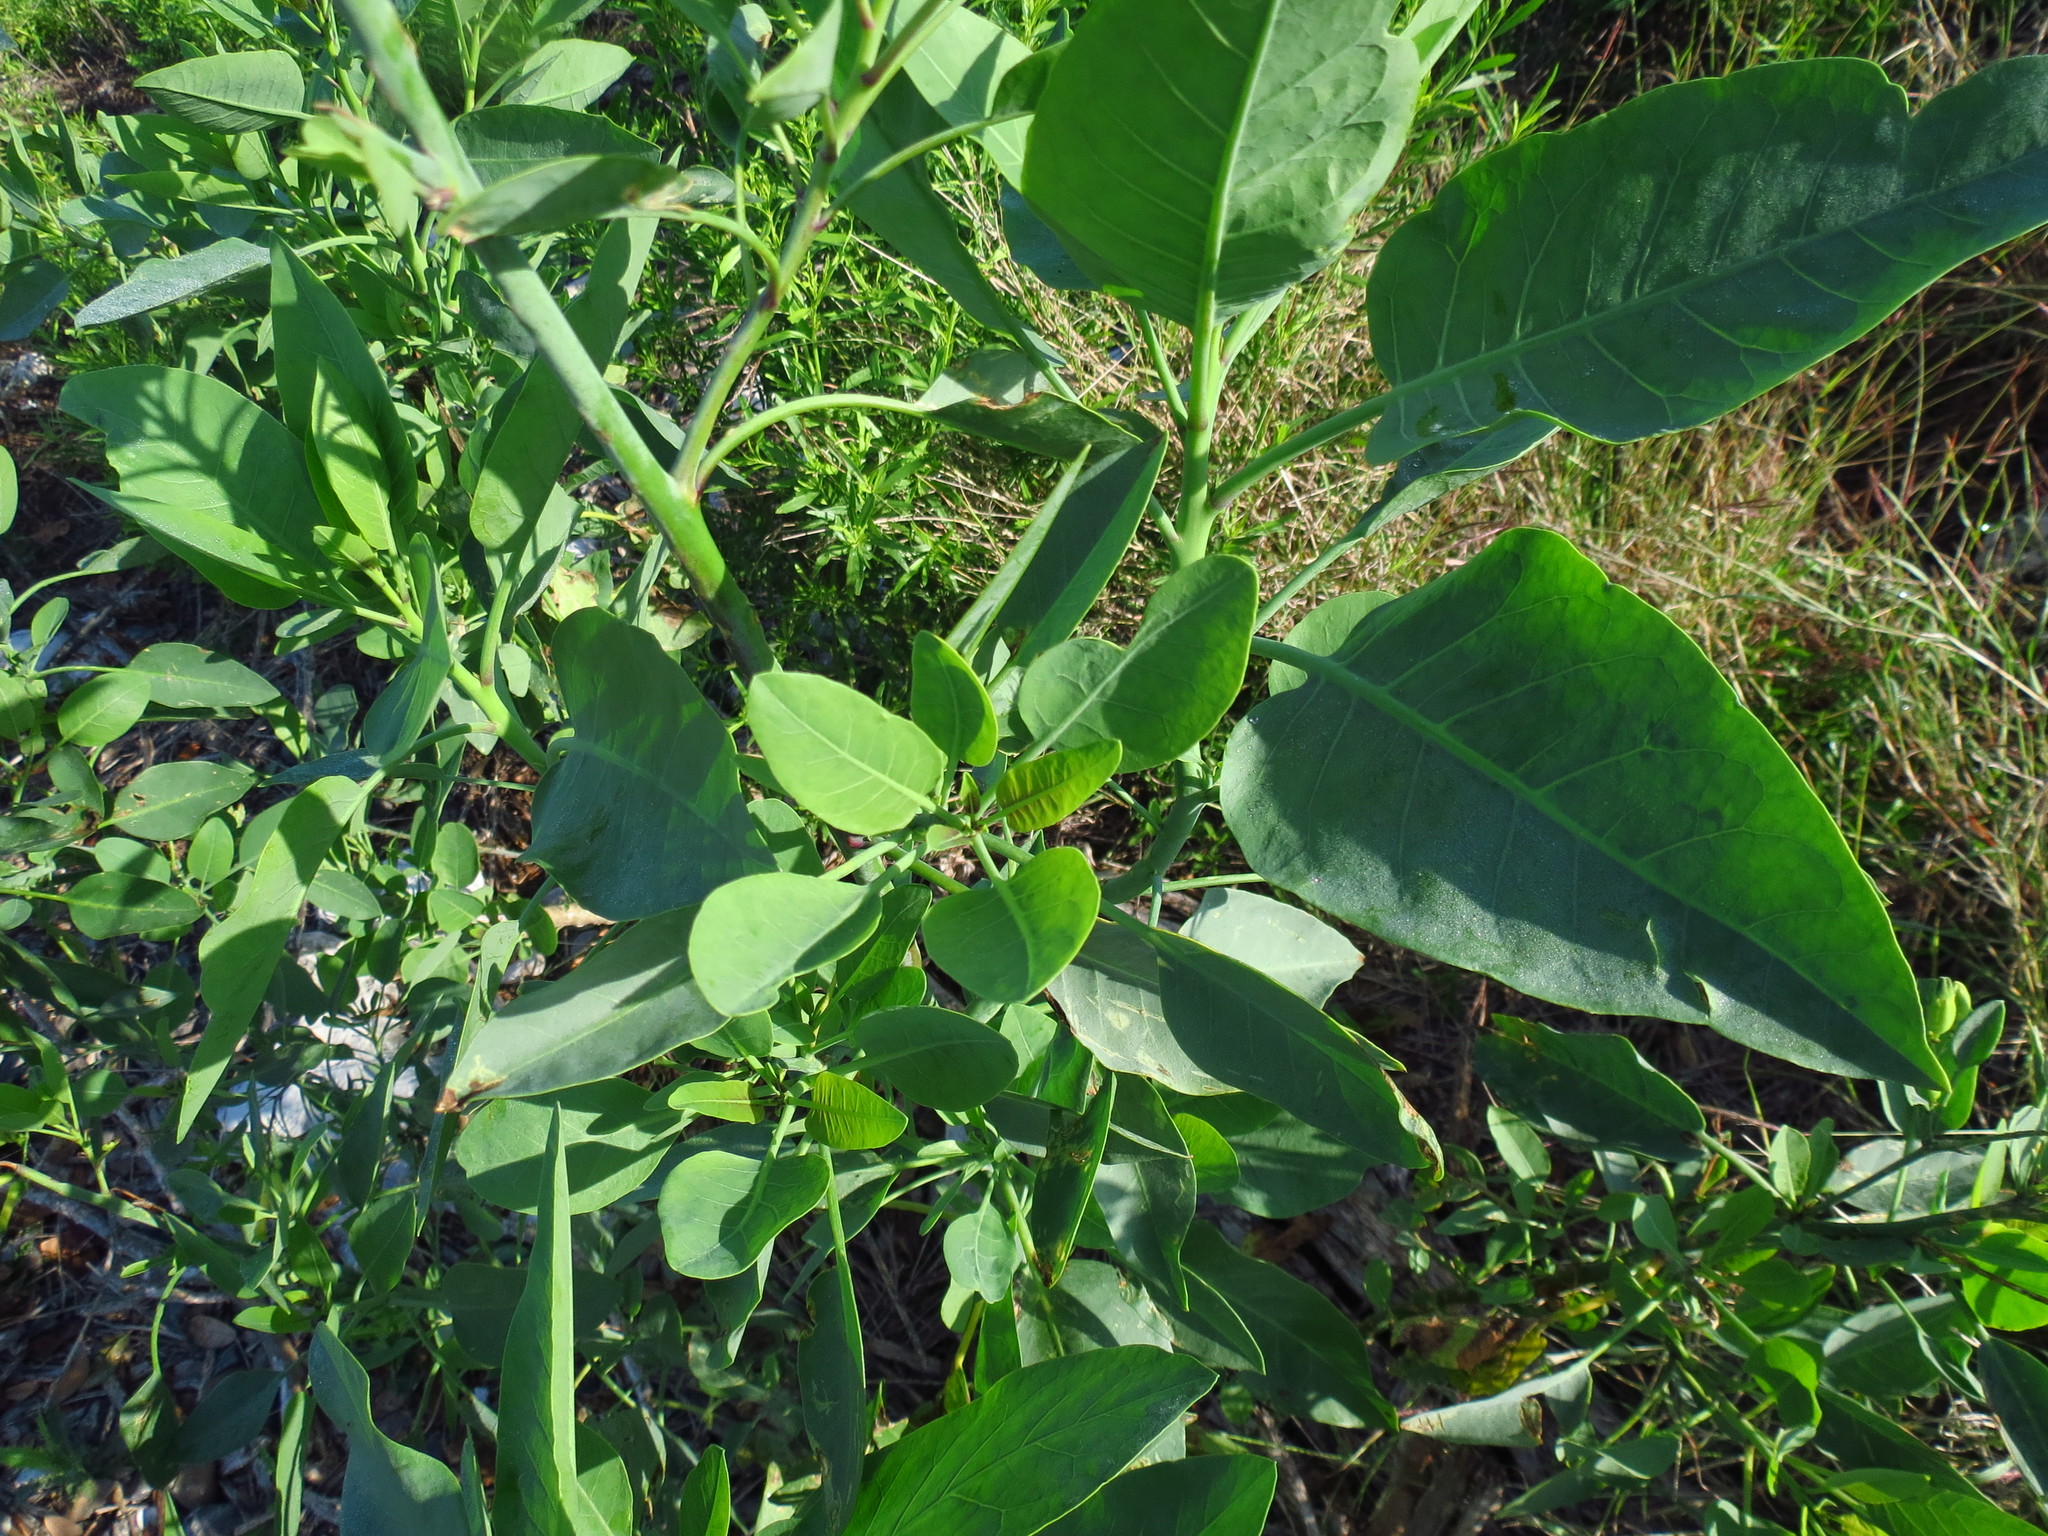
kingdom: Plantae
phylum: Tracheophyta
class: Magnoliopsida
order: Solanales
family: Solanaceae
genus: Nicotiana
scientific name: Nicotiana glauca
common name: Tree tobacco
